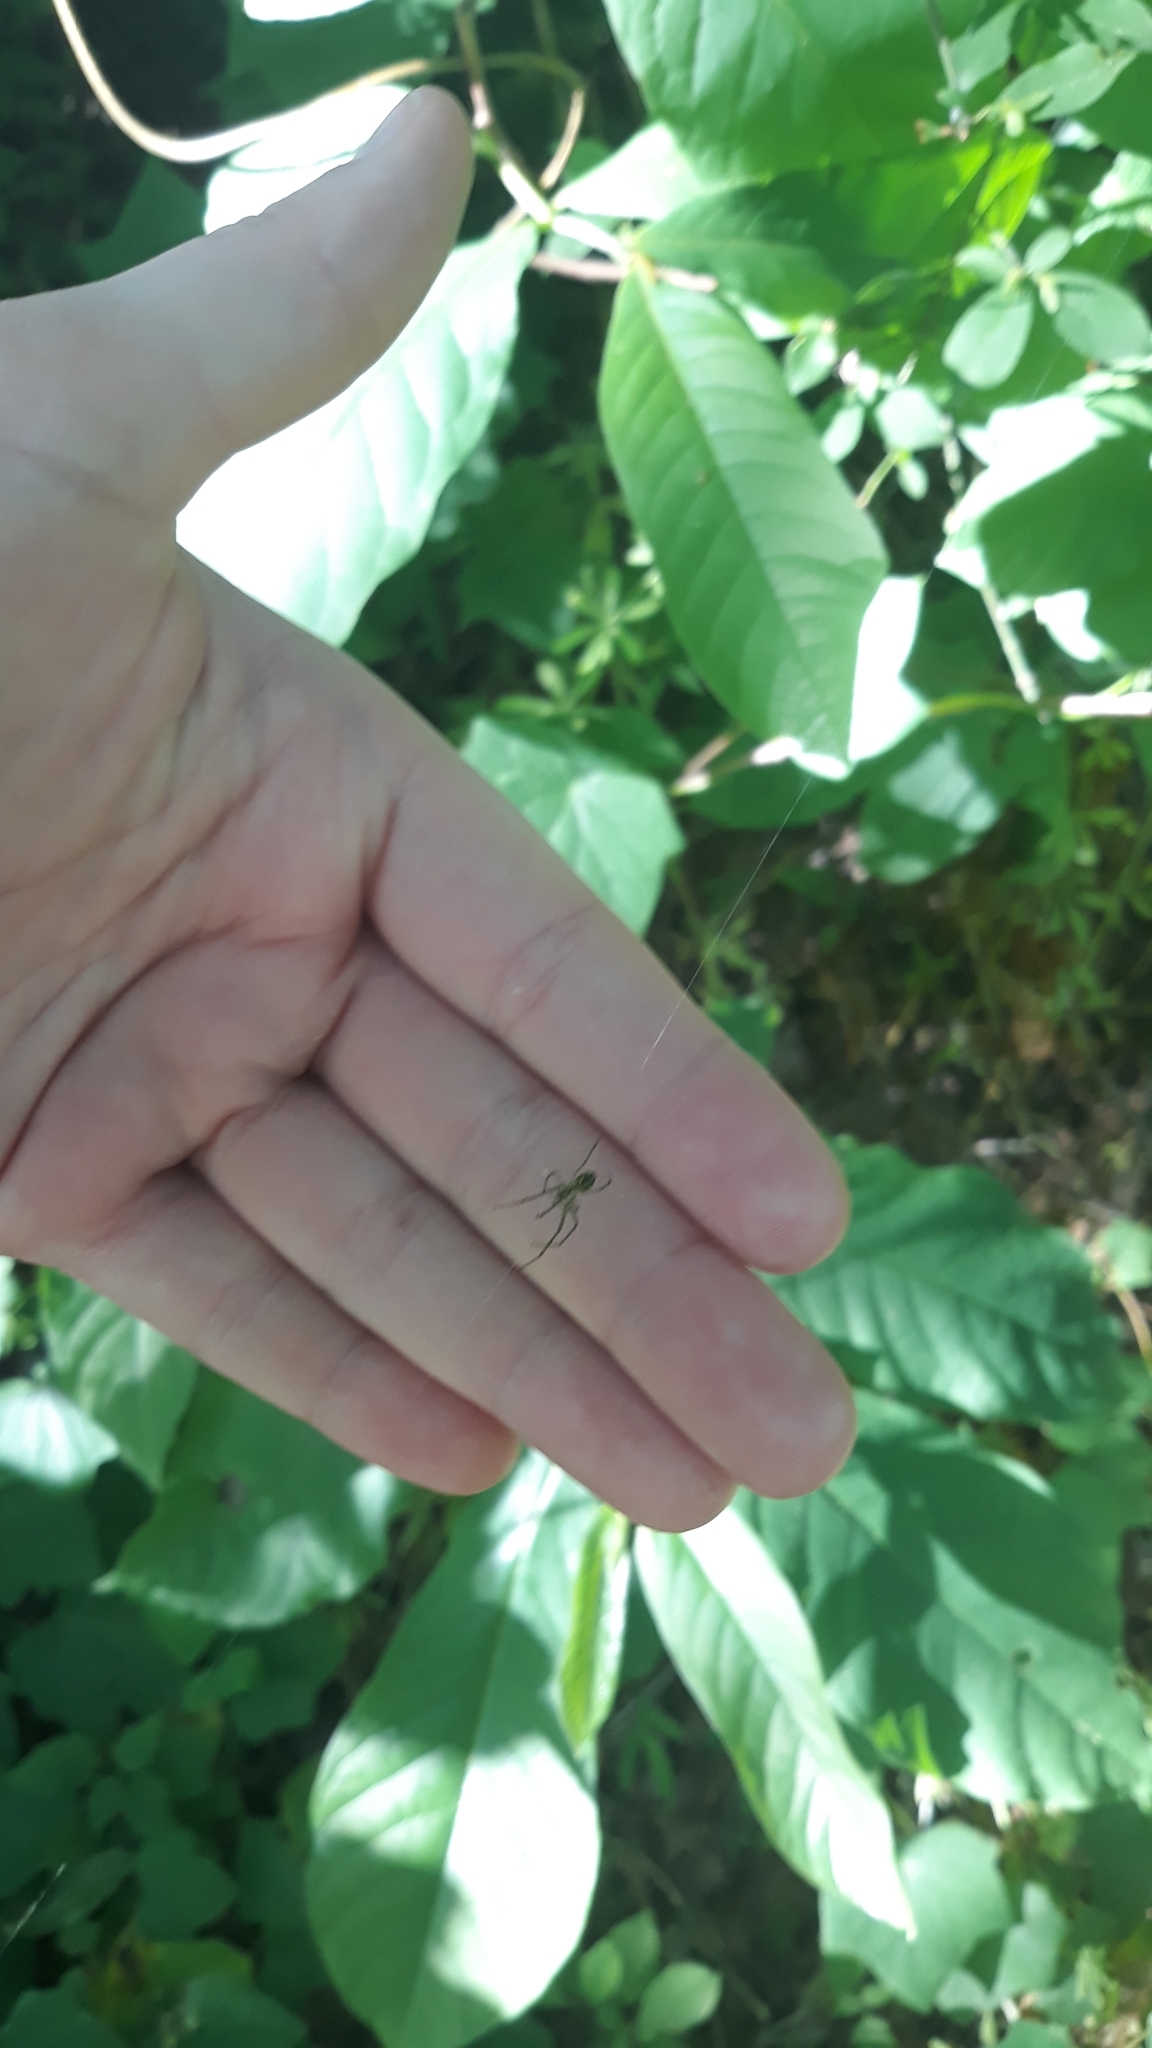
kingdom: Animalia
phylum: Arthropoda
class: Arachnida
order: Araneae
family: Tetragnathidae
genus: Leucauge
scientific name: Leucauge venusta
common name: Longjawed orb weavers
